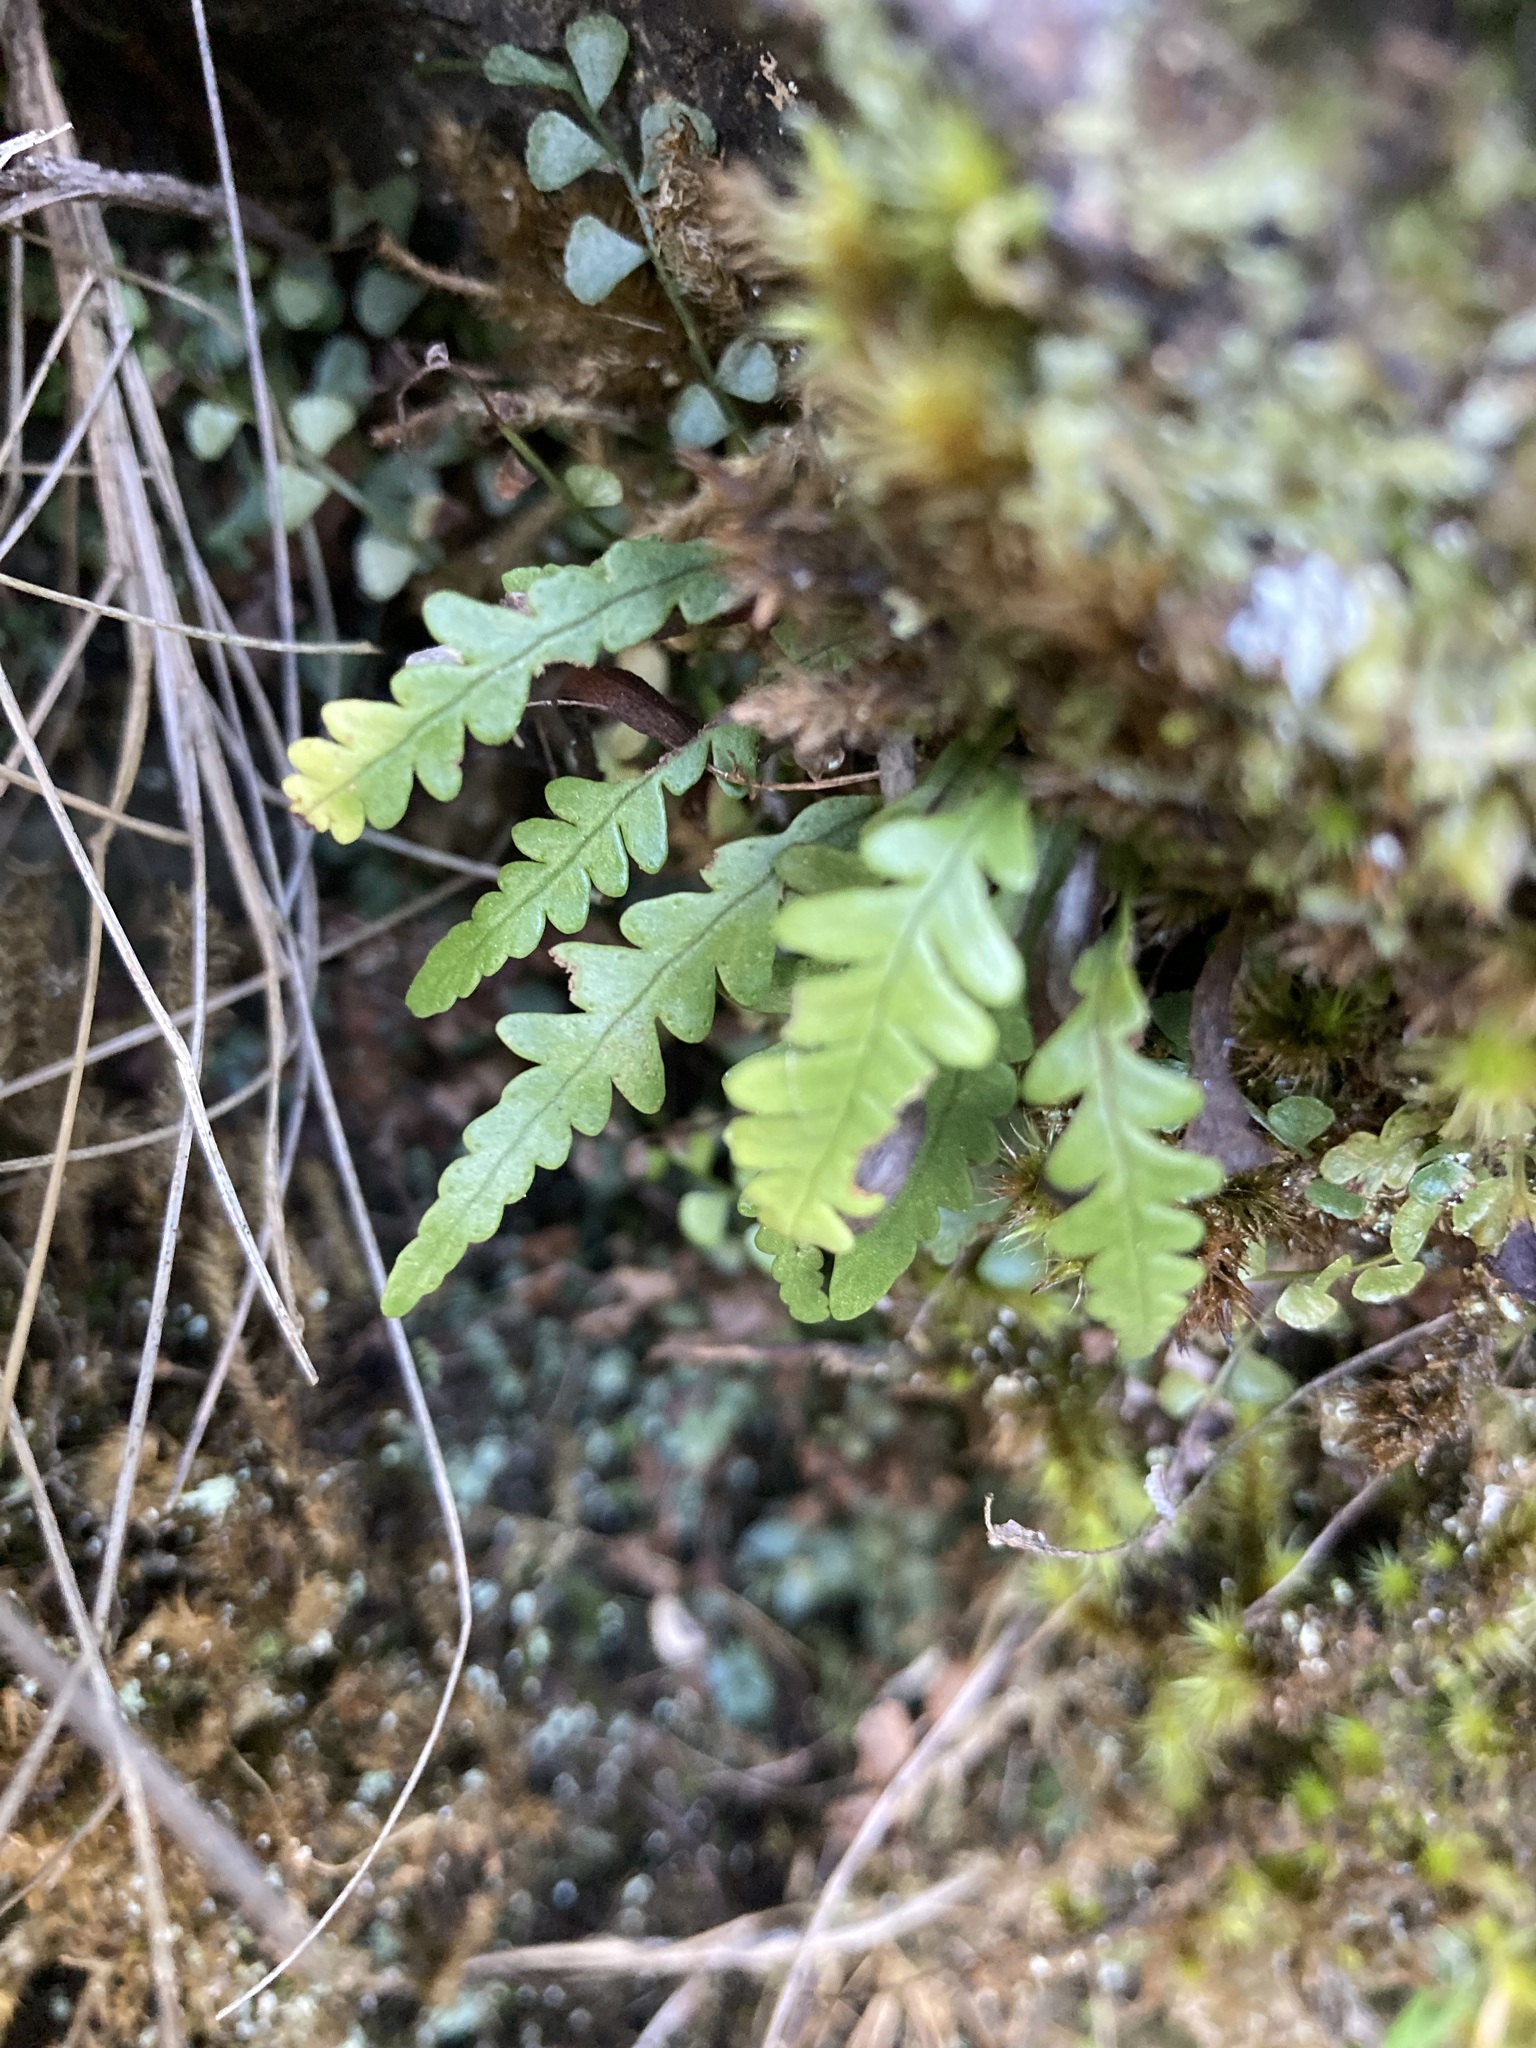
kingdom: Plantae
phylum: Tracheophyta
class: Polypodiopsida
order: Polypodiales
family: Polypodiaceae
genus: Notogrammitis
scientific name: Notogrammitis heterophylla
